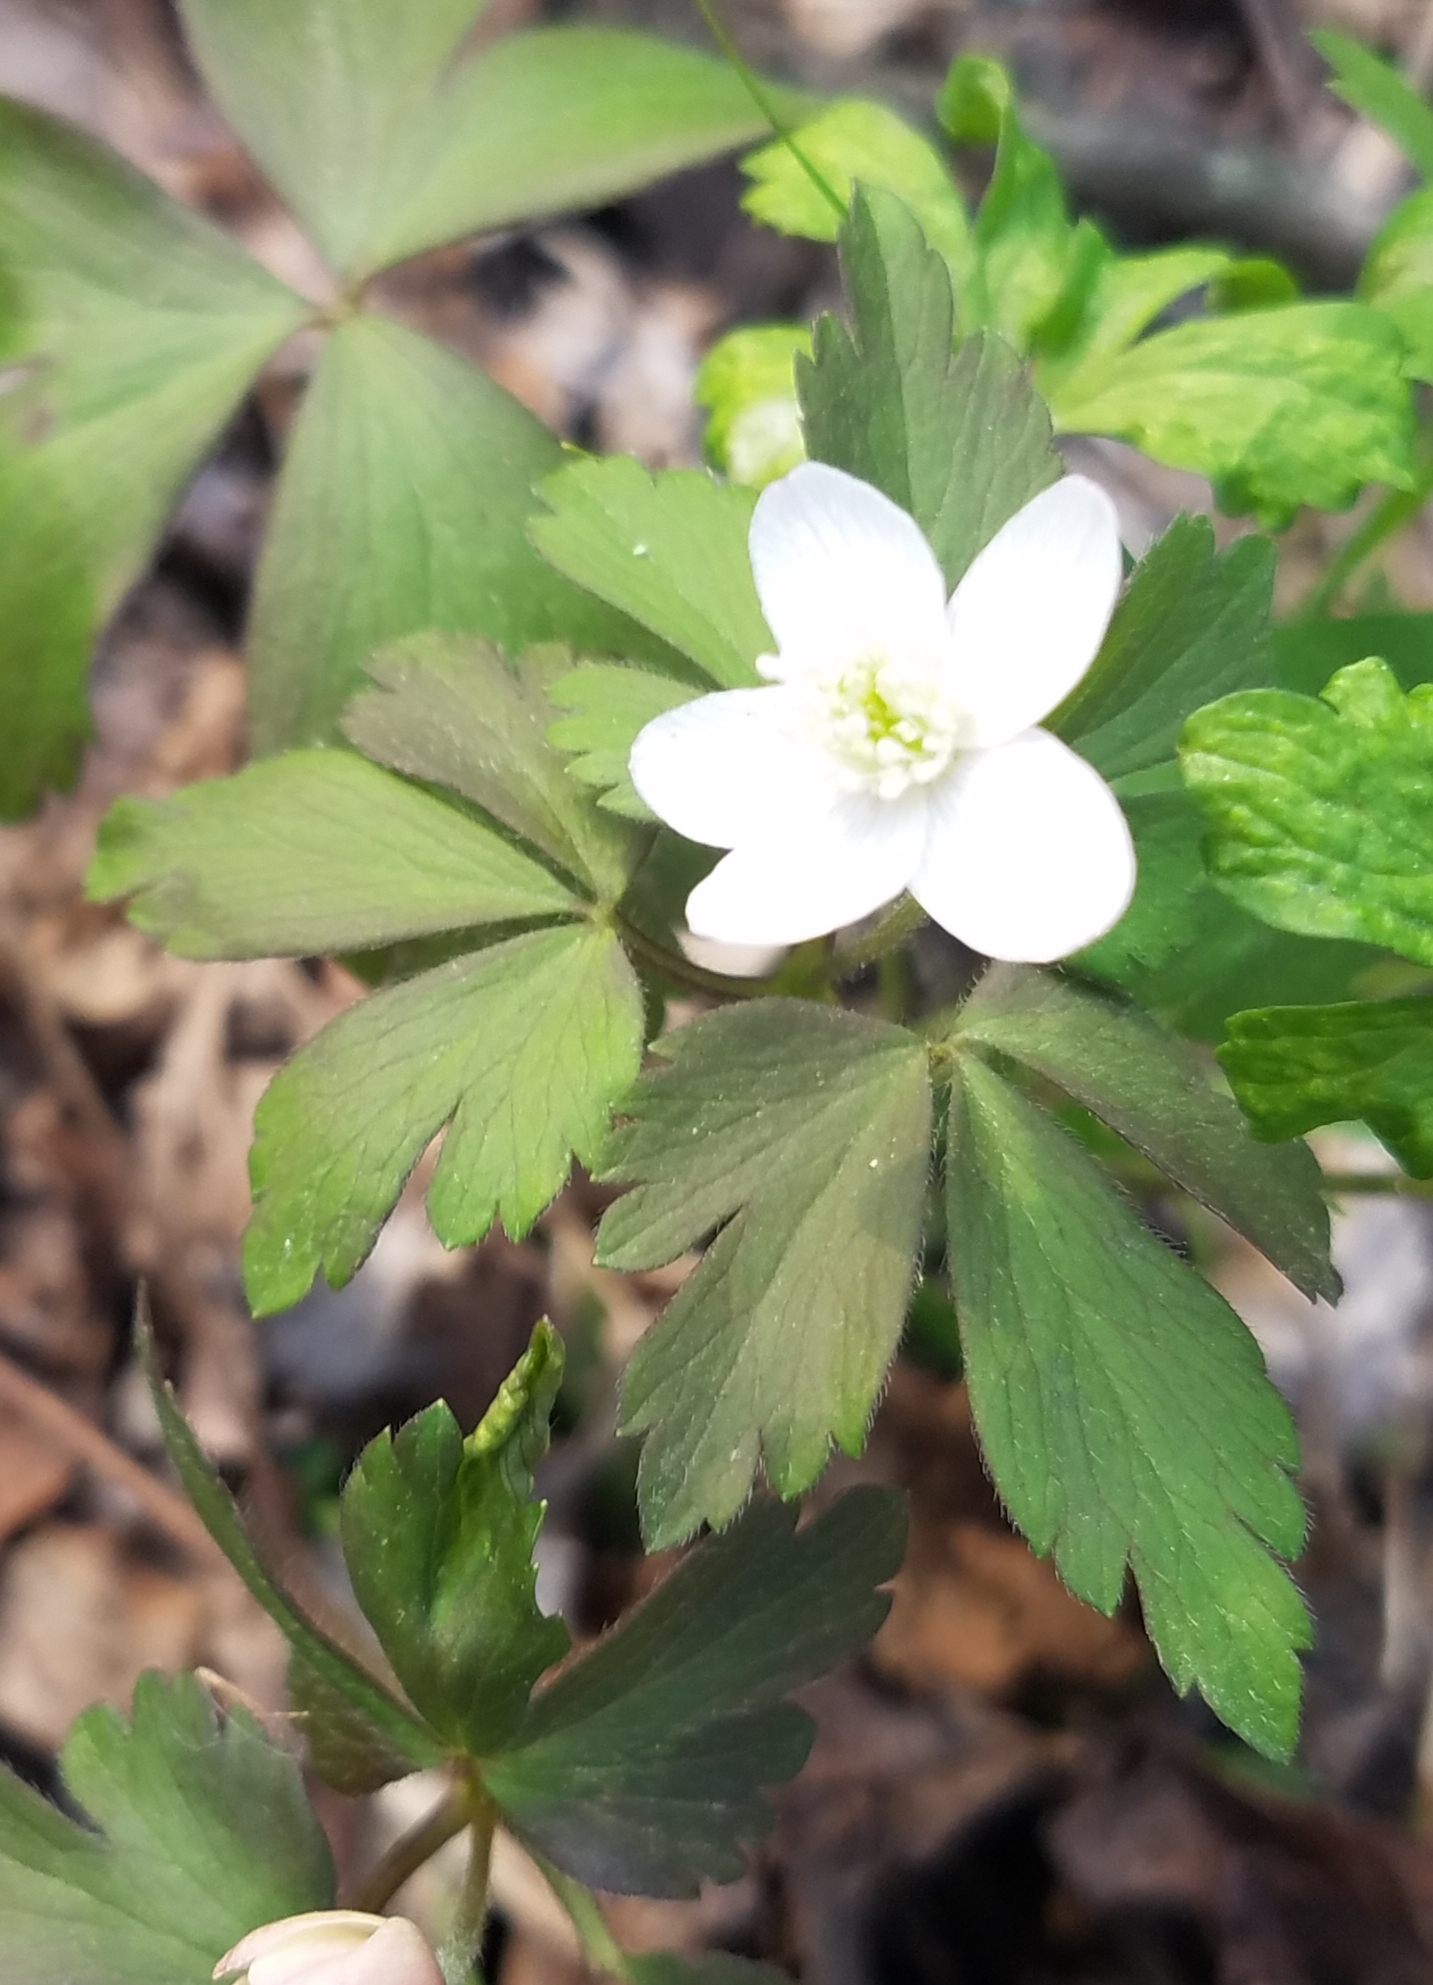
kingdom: Plantae
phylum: Tracheophyta
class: Magnoliopsida
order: Ranunculales
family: Ranunculaceae
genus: Anemone
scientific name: Anemone quinquefolia
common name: Wood anemone
